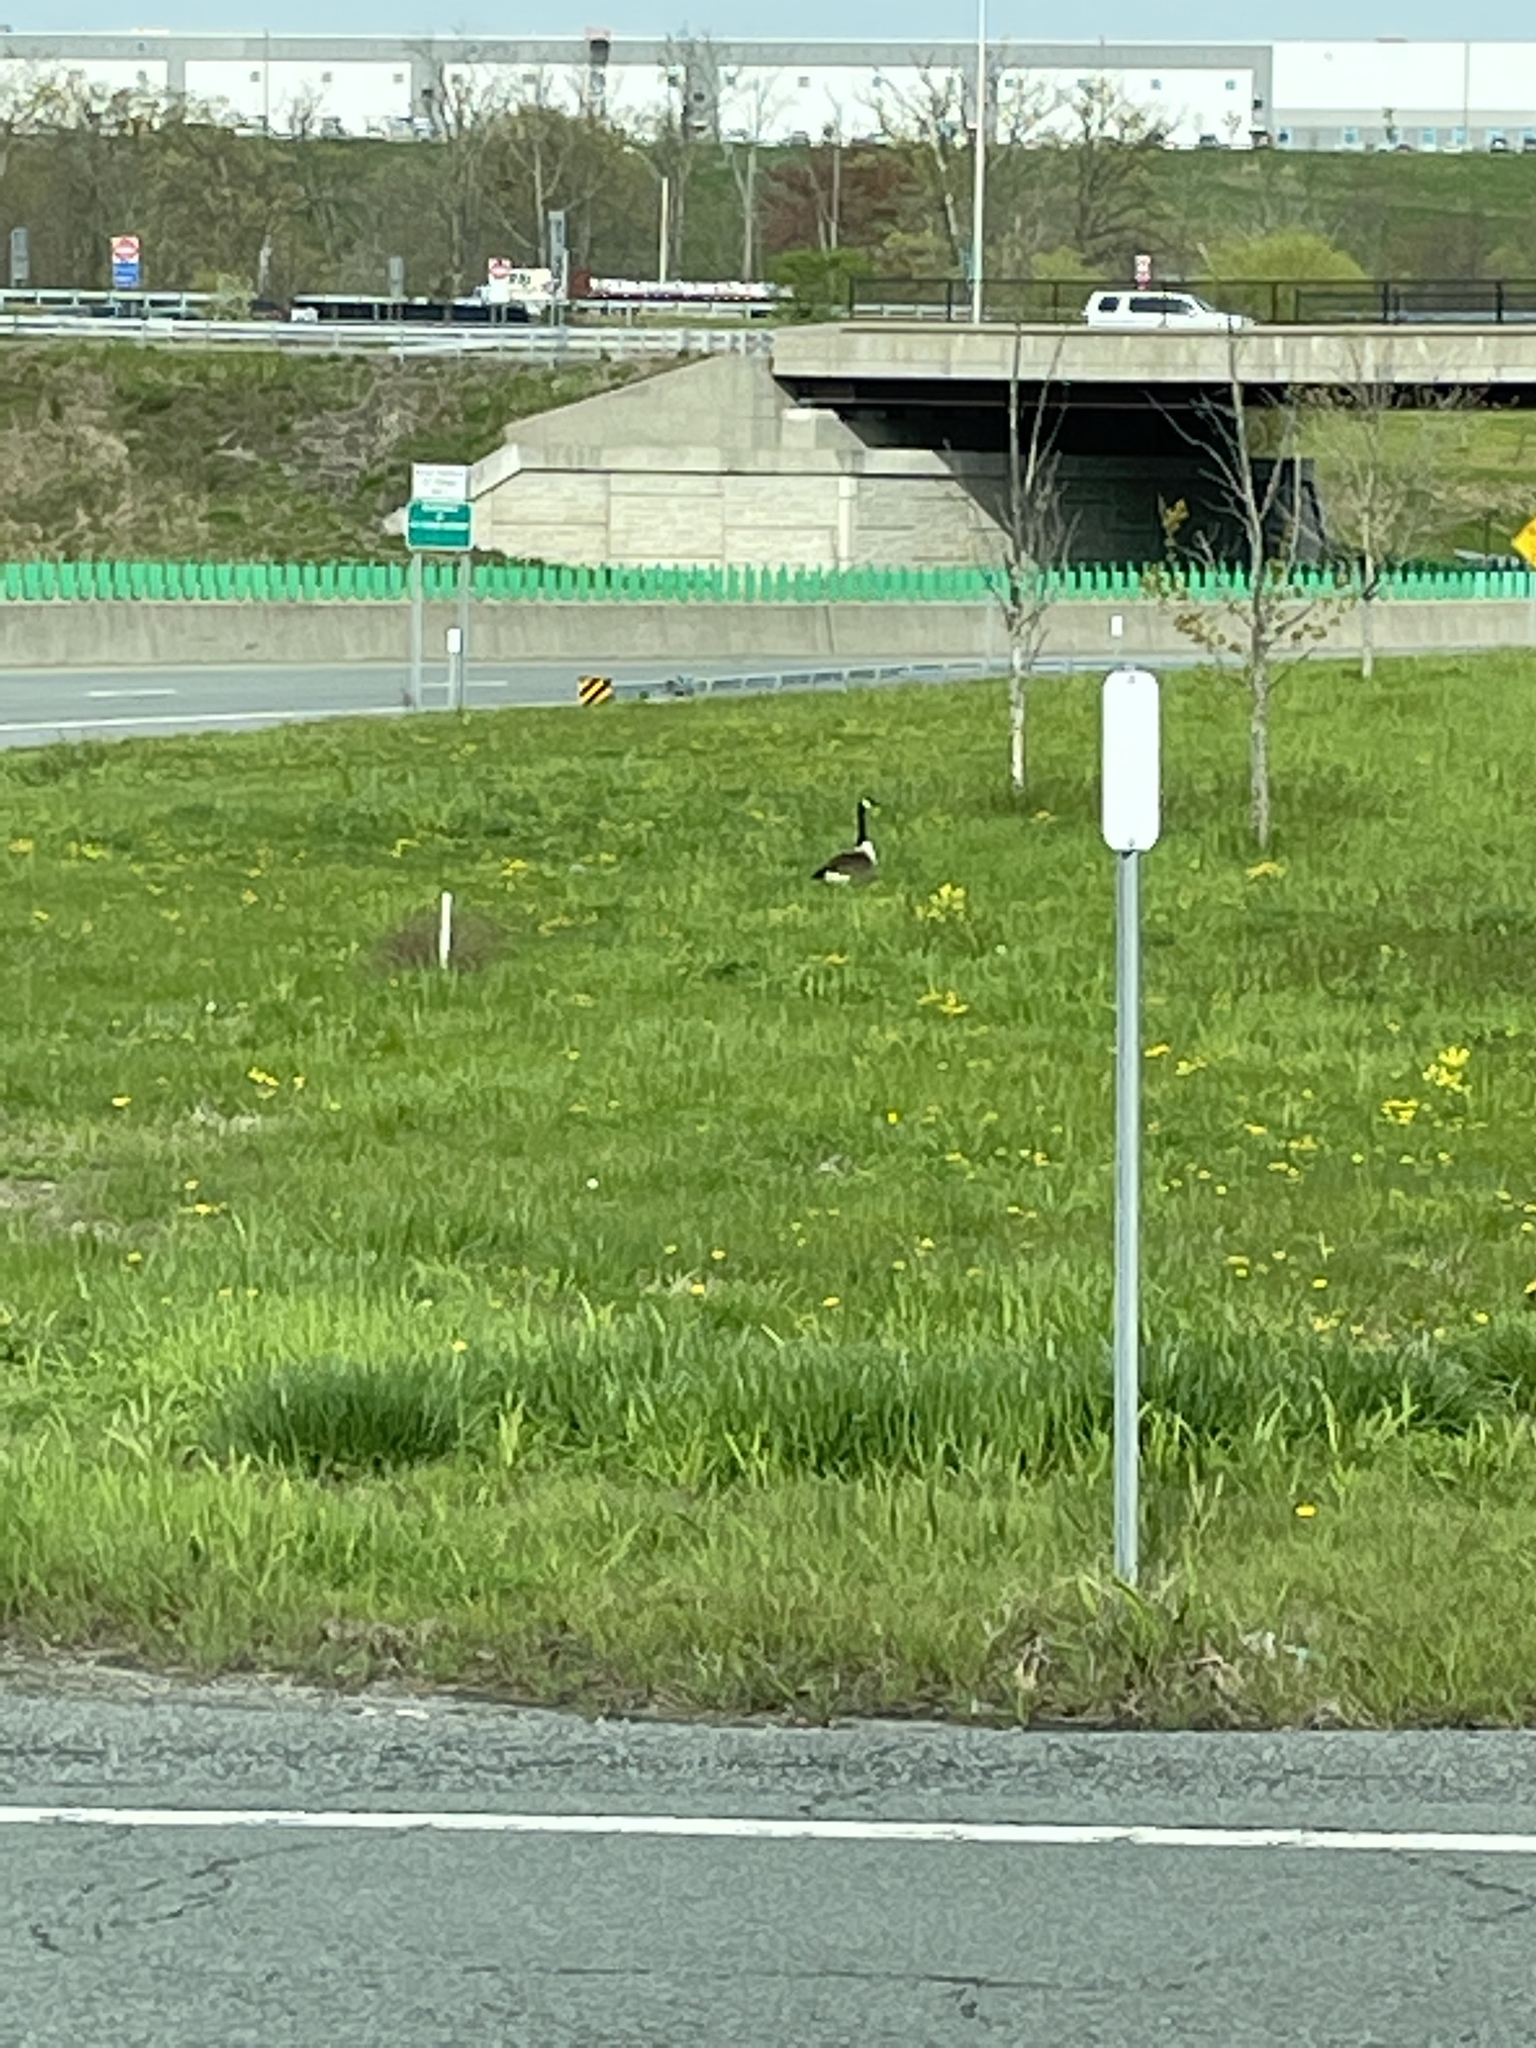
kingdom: Animalia
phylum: Chordata
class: Aves
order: Anseriformes
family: Anatidae
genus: Branta
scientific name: Branta canadensis
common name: Canada goose
